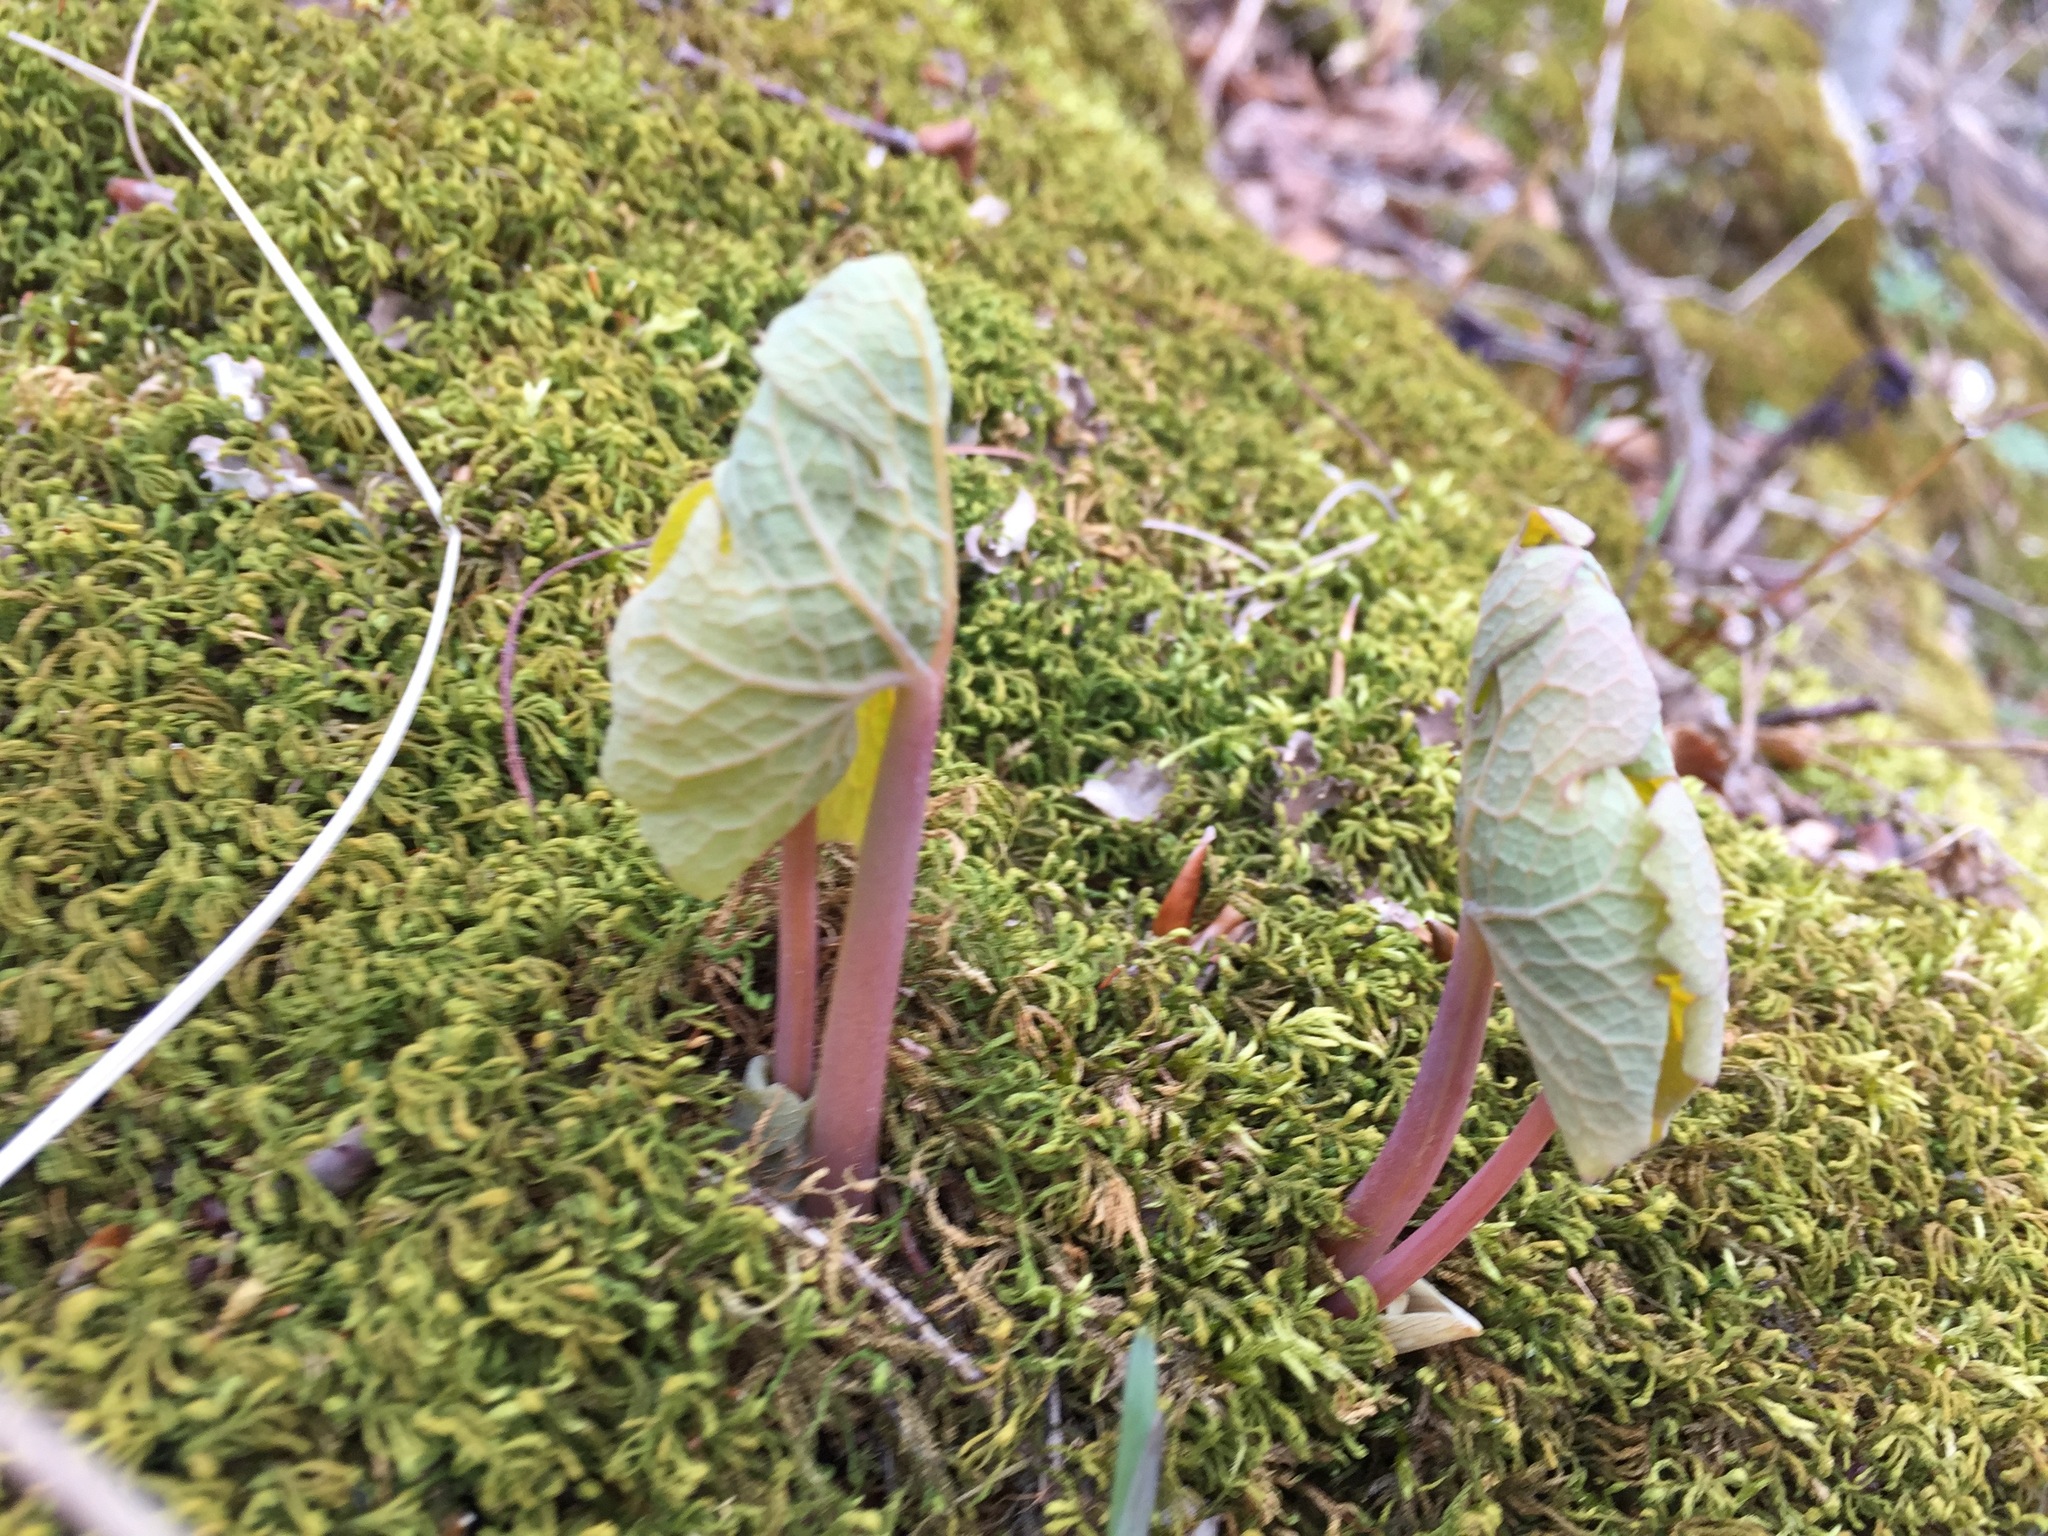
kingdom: Plantae
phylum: Tracheophyta
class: Magnoliopsida
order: Ranunculales
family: Papaveraceae
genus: Sanguinaria
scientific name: Sanguinaria canadensis
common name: Bloodroot
